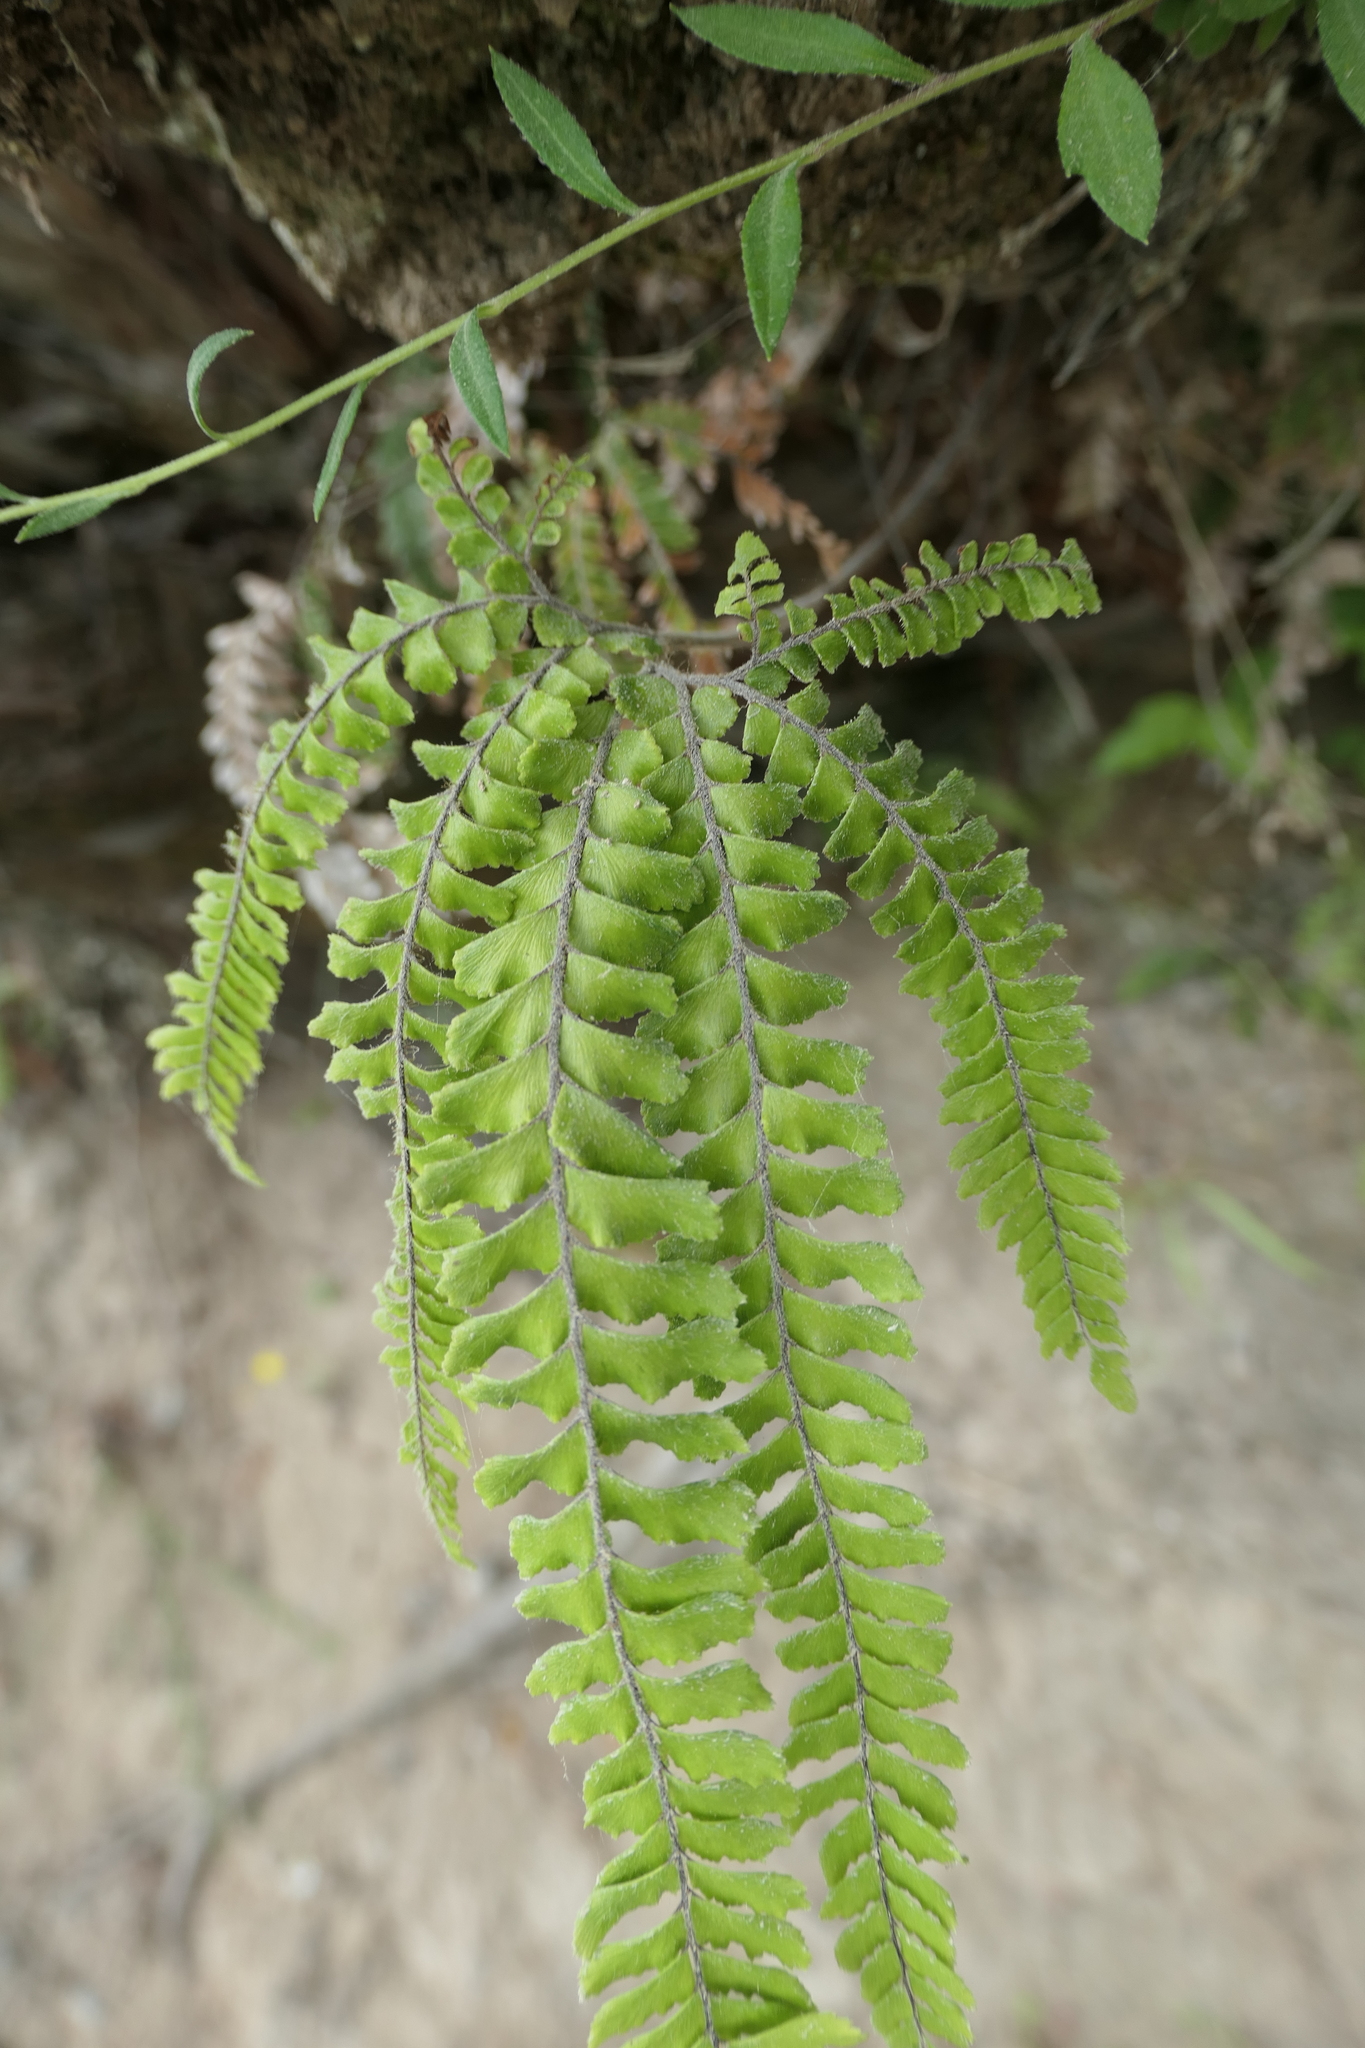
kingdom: Plantae
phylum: Tracheophyta
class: Polypodiopsida
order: Polypodiales
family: Pteridaceae
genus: Adiantum
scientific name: Adiantum hispidulum
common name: Rough maidenhair
